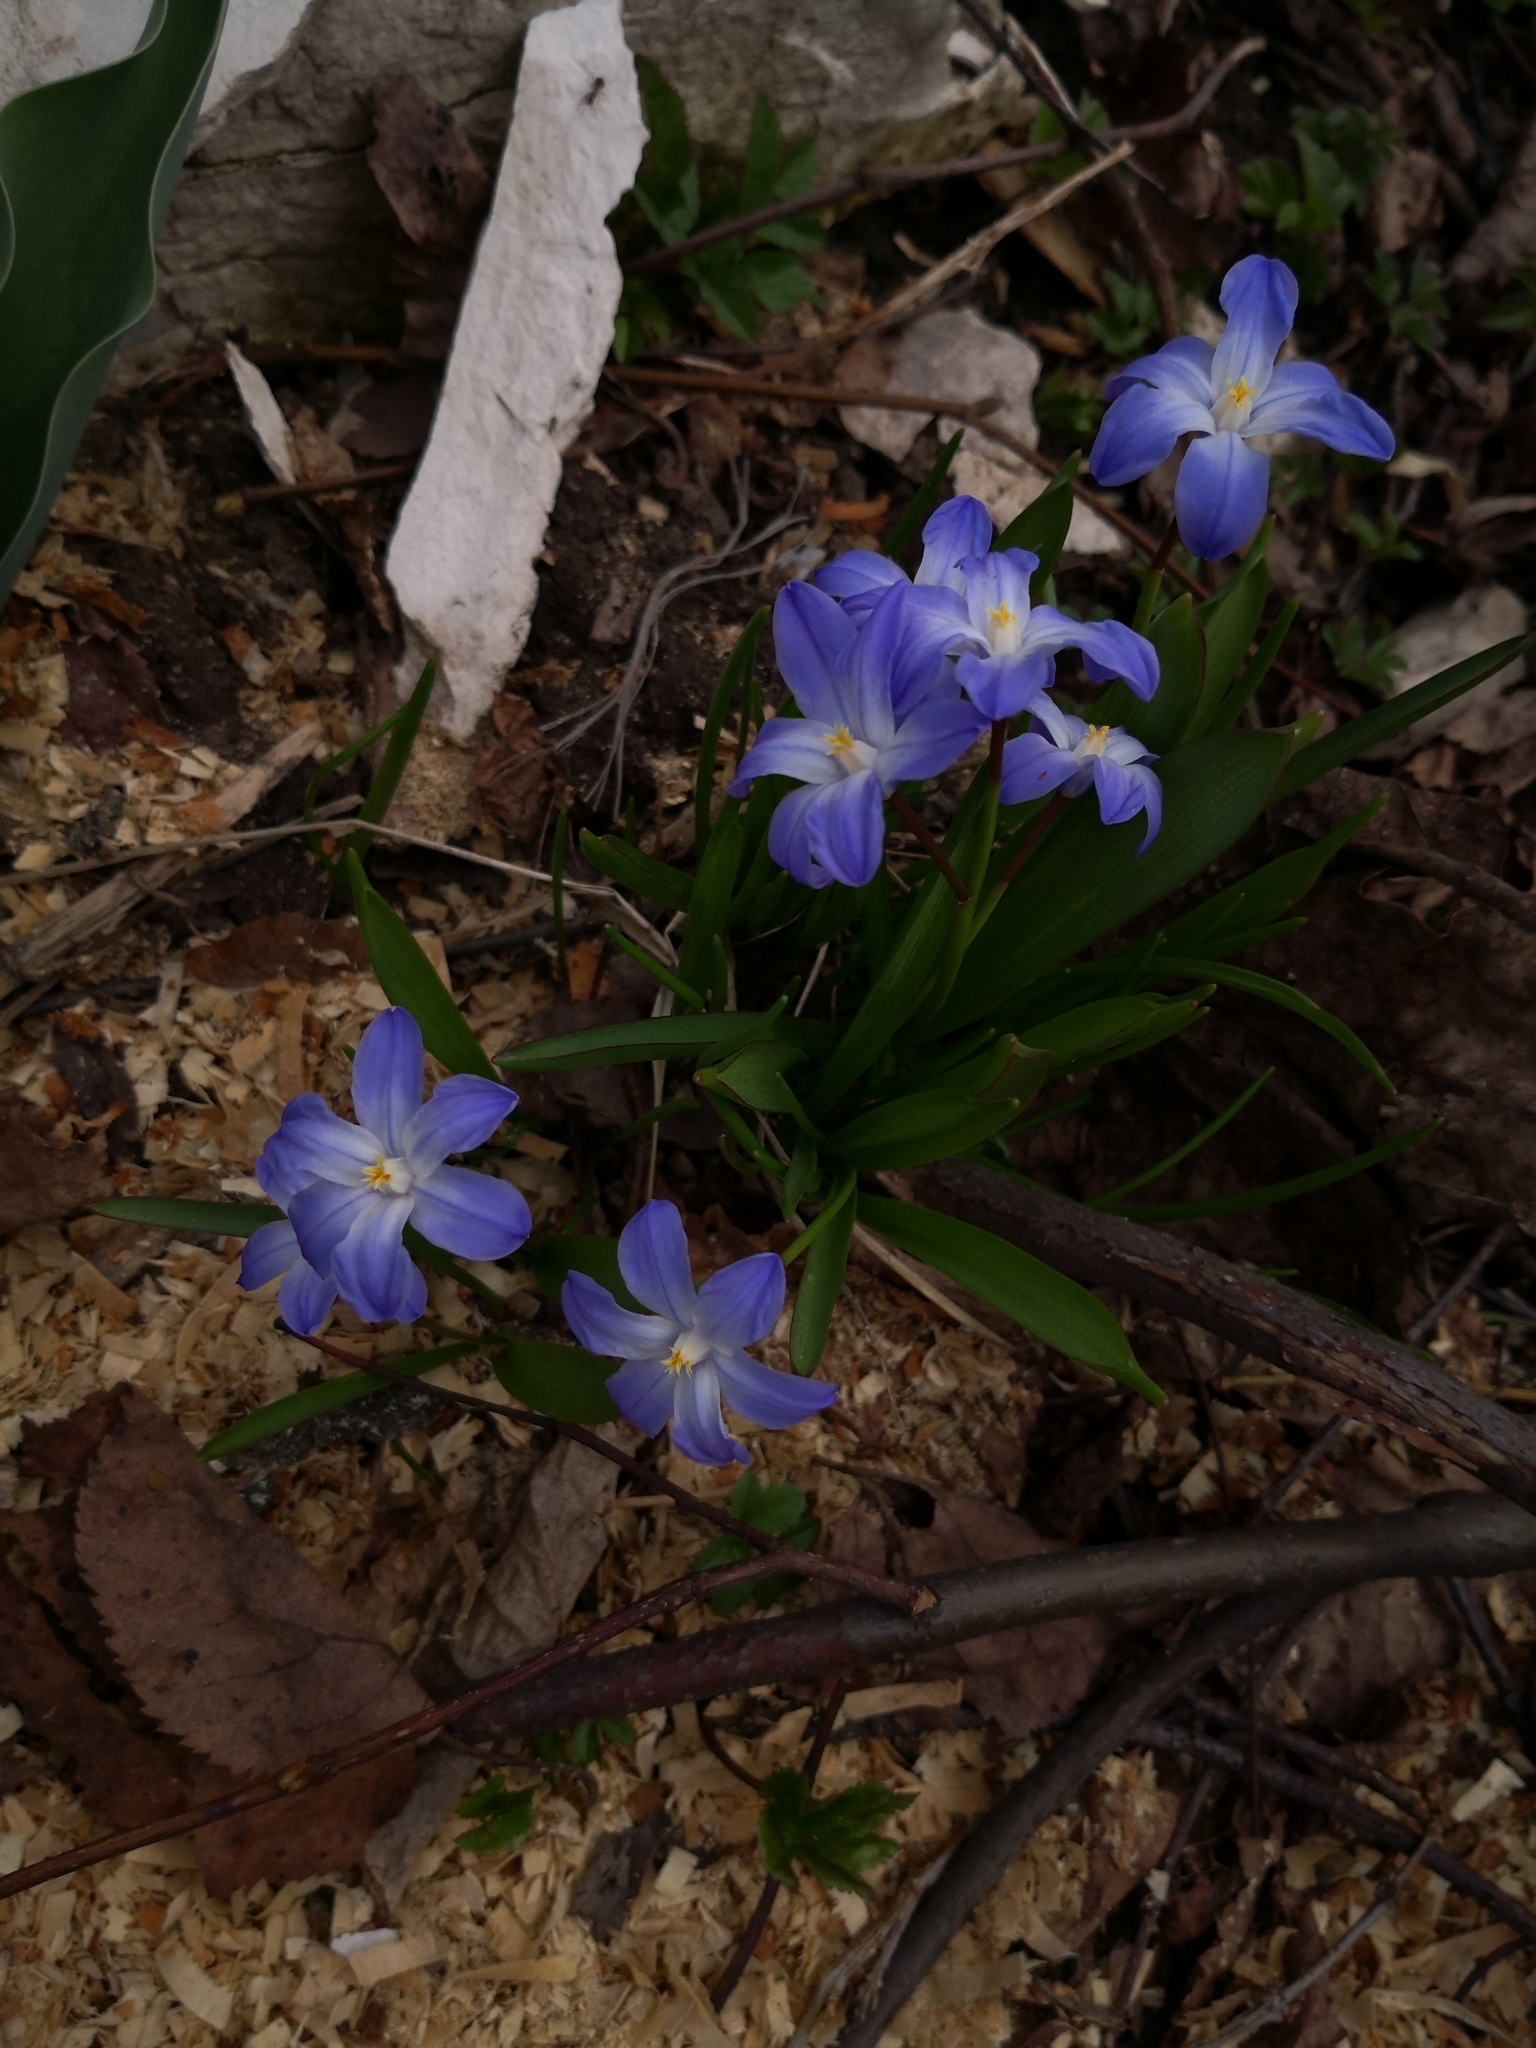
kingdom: Plantae
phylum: Tracheophyta
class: Liliopsida
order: Asparagales
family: Asparagaceae
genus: Scilla
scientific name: Scilla luciliae
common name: Boissier's glory-of-the-snow
